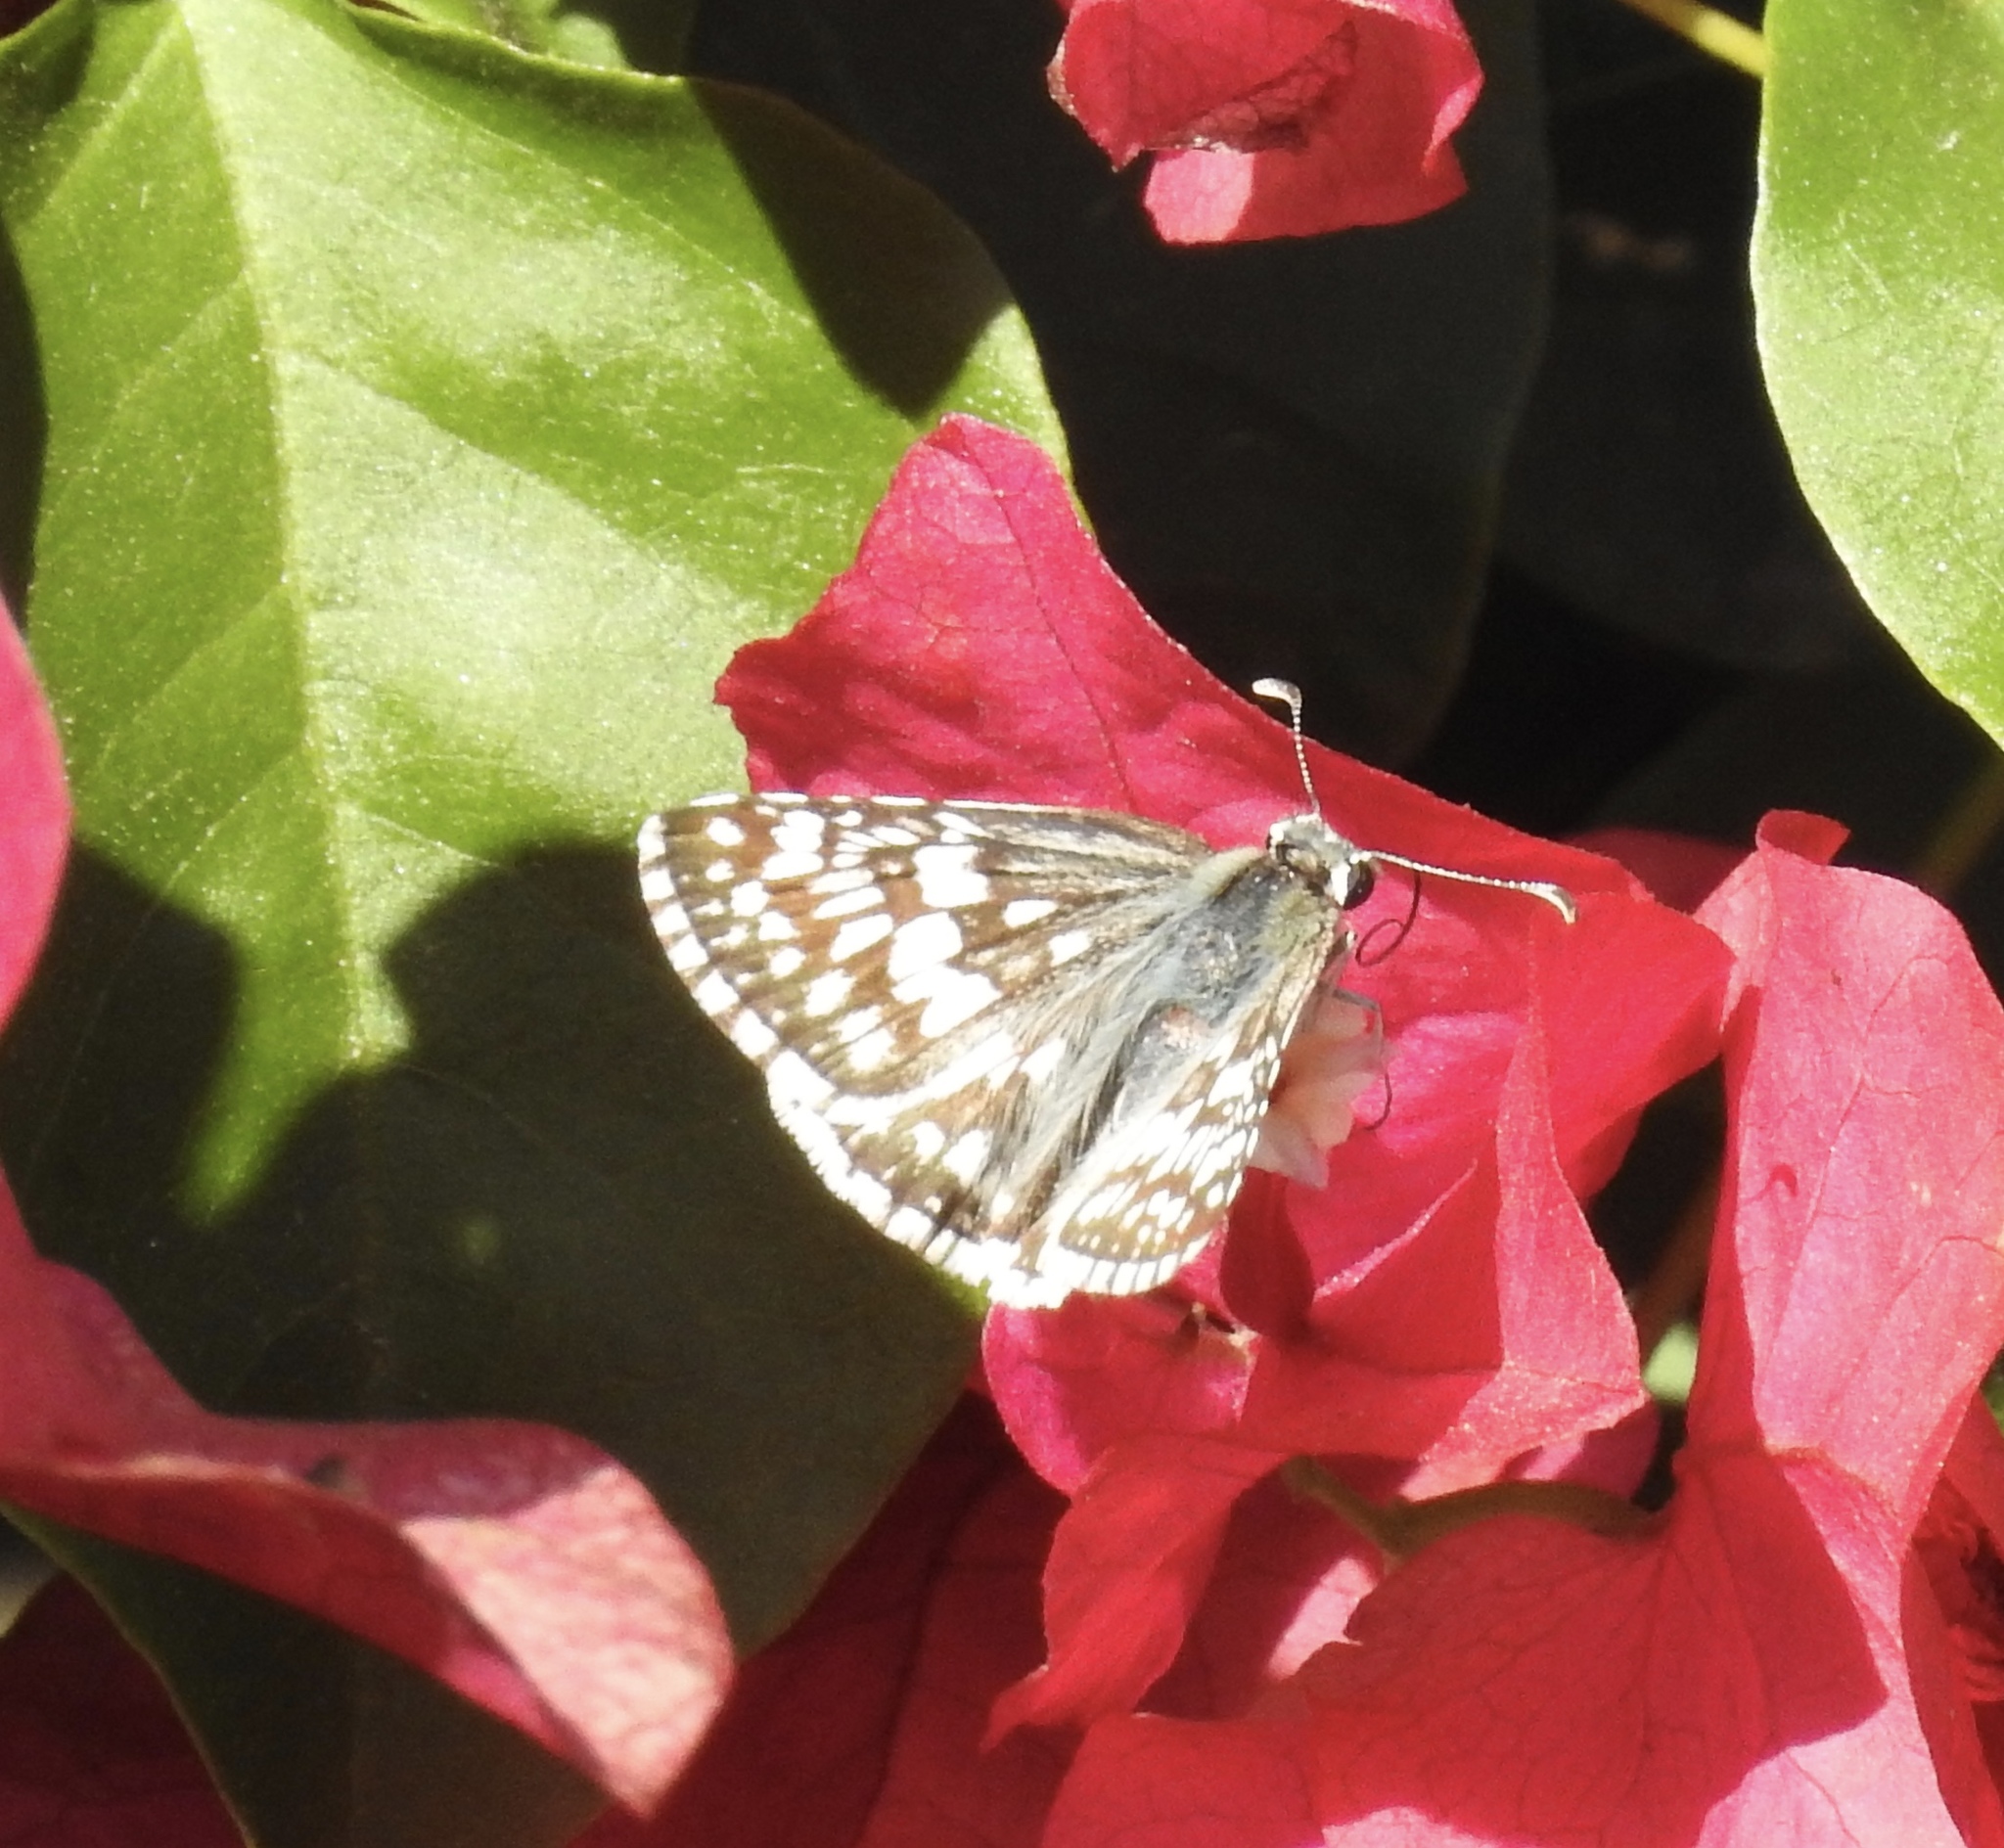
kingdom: Animalia
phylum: Arthropoda
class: Insecta
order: Lepidoptera
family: Hesperiidae
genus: Burnsius
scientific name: Burnsius albezens
